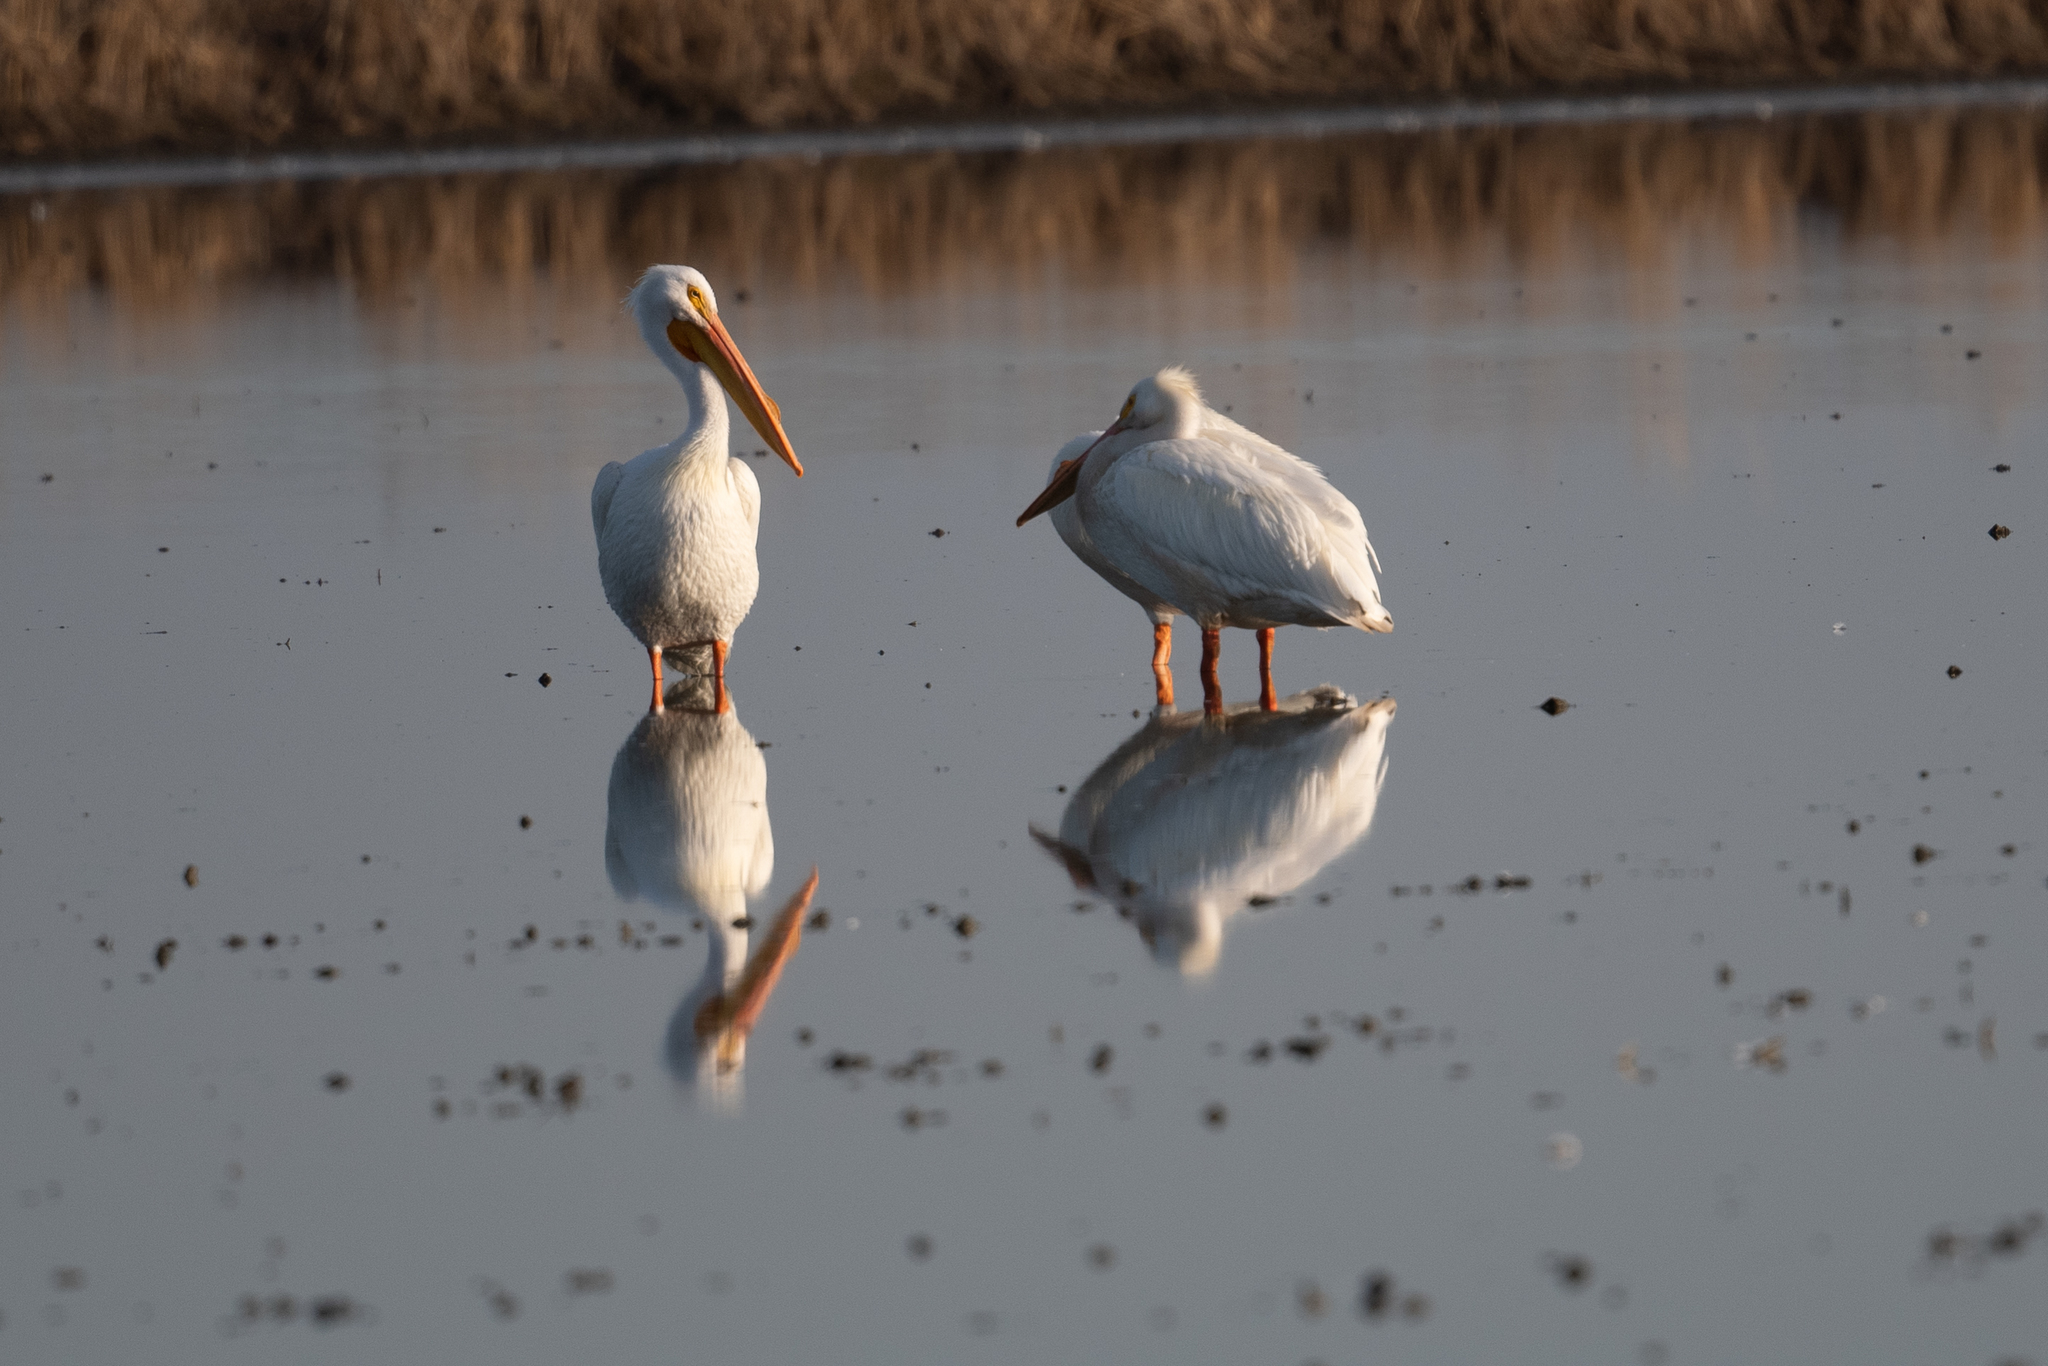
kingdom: Animalia
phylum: Chordata
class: Aves
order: Pelecaniformes
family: Pelecanidae
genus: Pelecanus
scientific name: Pelecanus erythrorhynchos
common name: American white pelican
